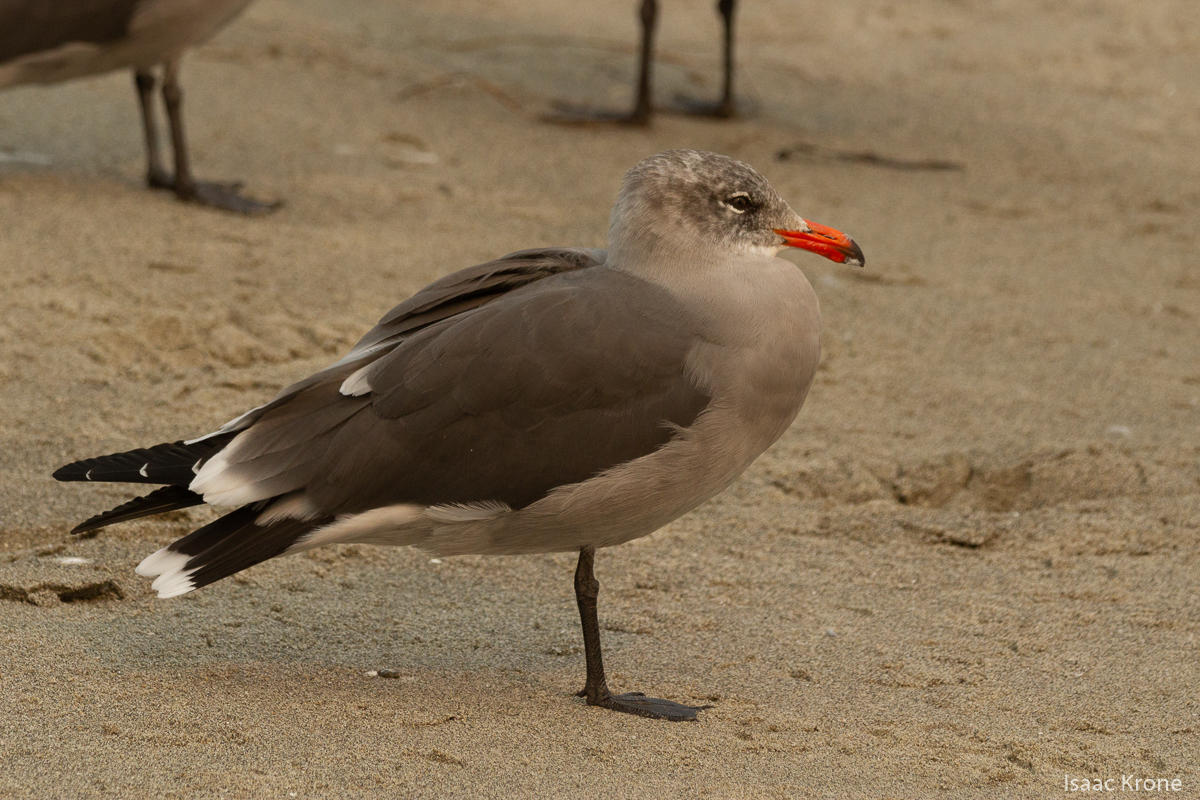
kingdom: Animalia
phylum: Chordata
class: Aves
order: Charadriiformes
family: Laridae
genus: Larus
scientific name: Larus heermanni
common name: Heermann's gull
